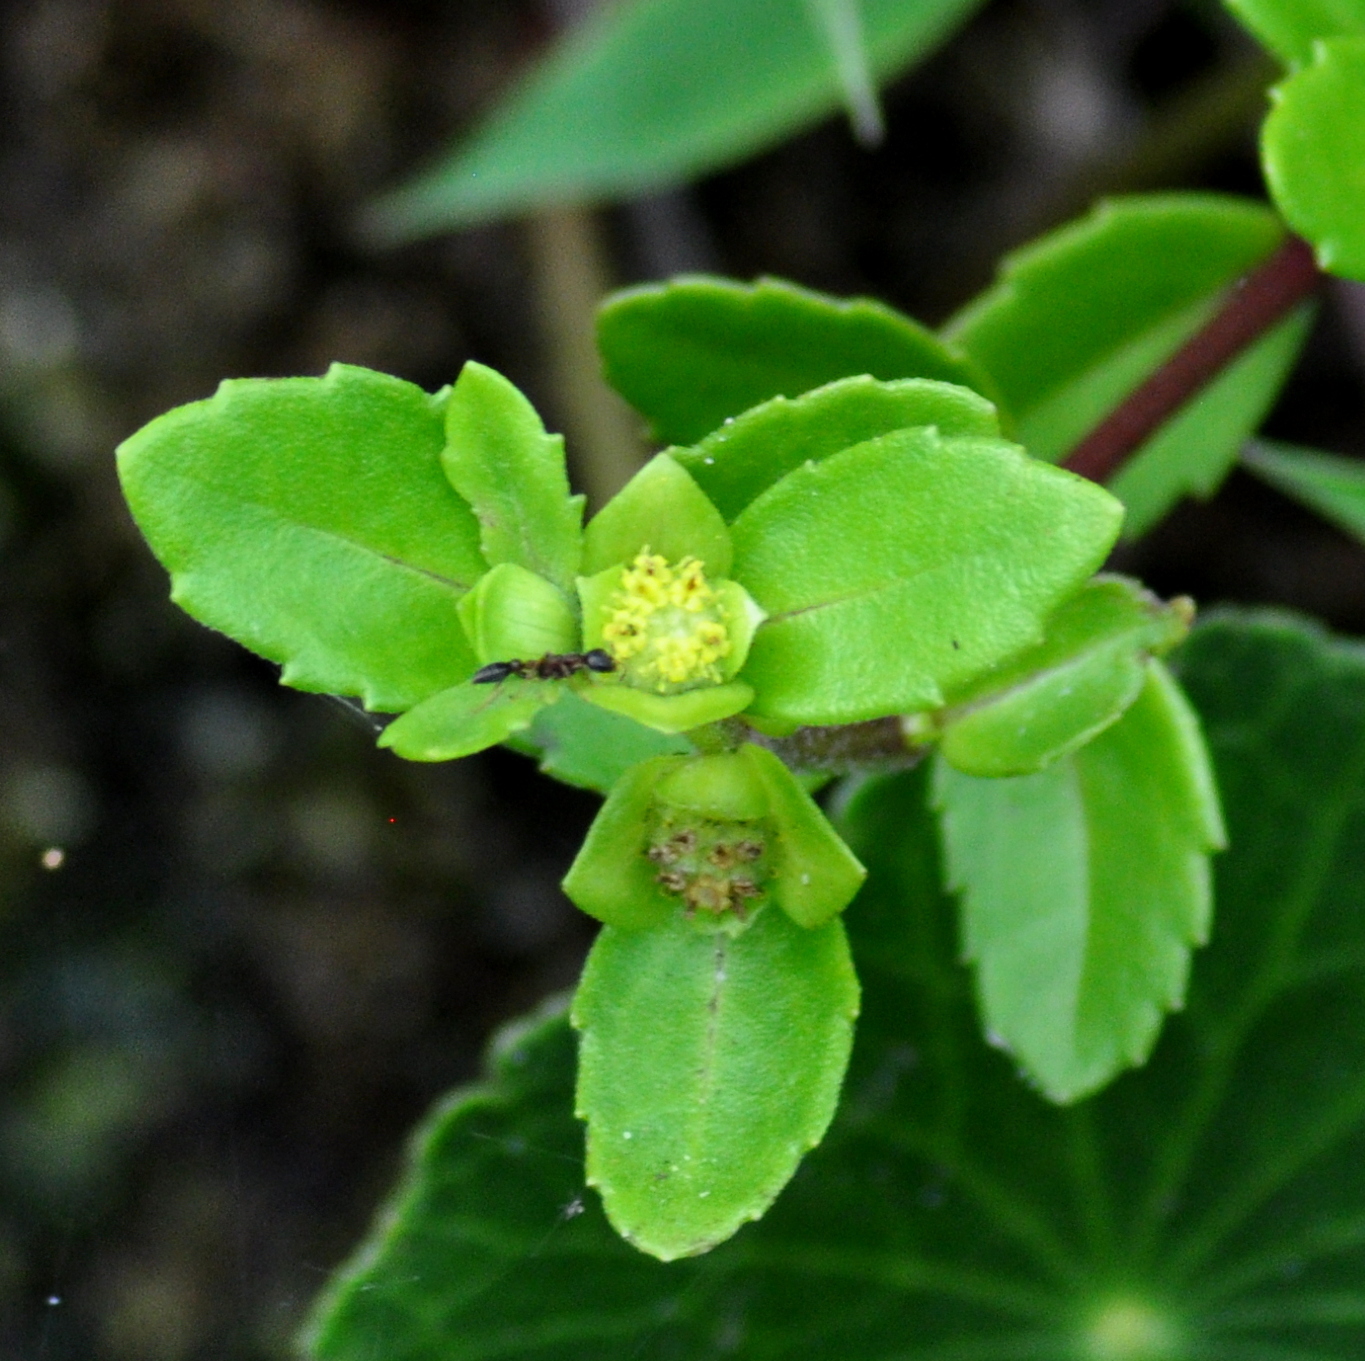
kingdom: Plantae
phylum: Tracheophyta
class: Magnoliopsida
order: Asterales
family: Asteraceae
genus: Enydra
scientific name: Enydra fluctuans
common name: Buffalo spinach
